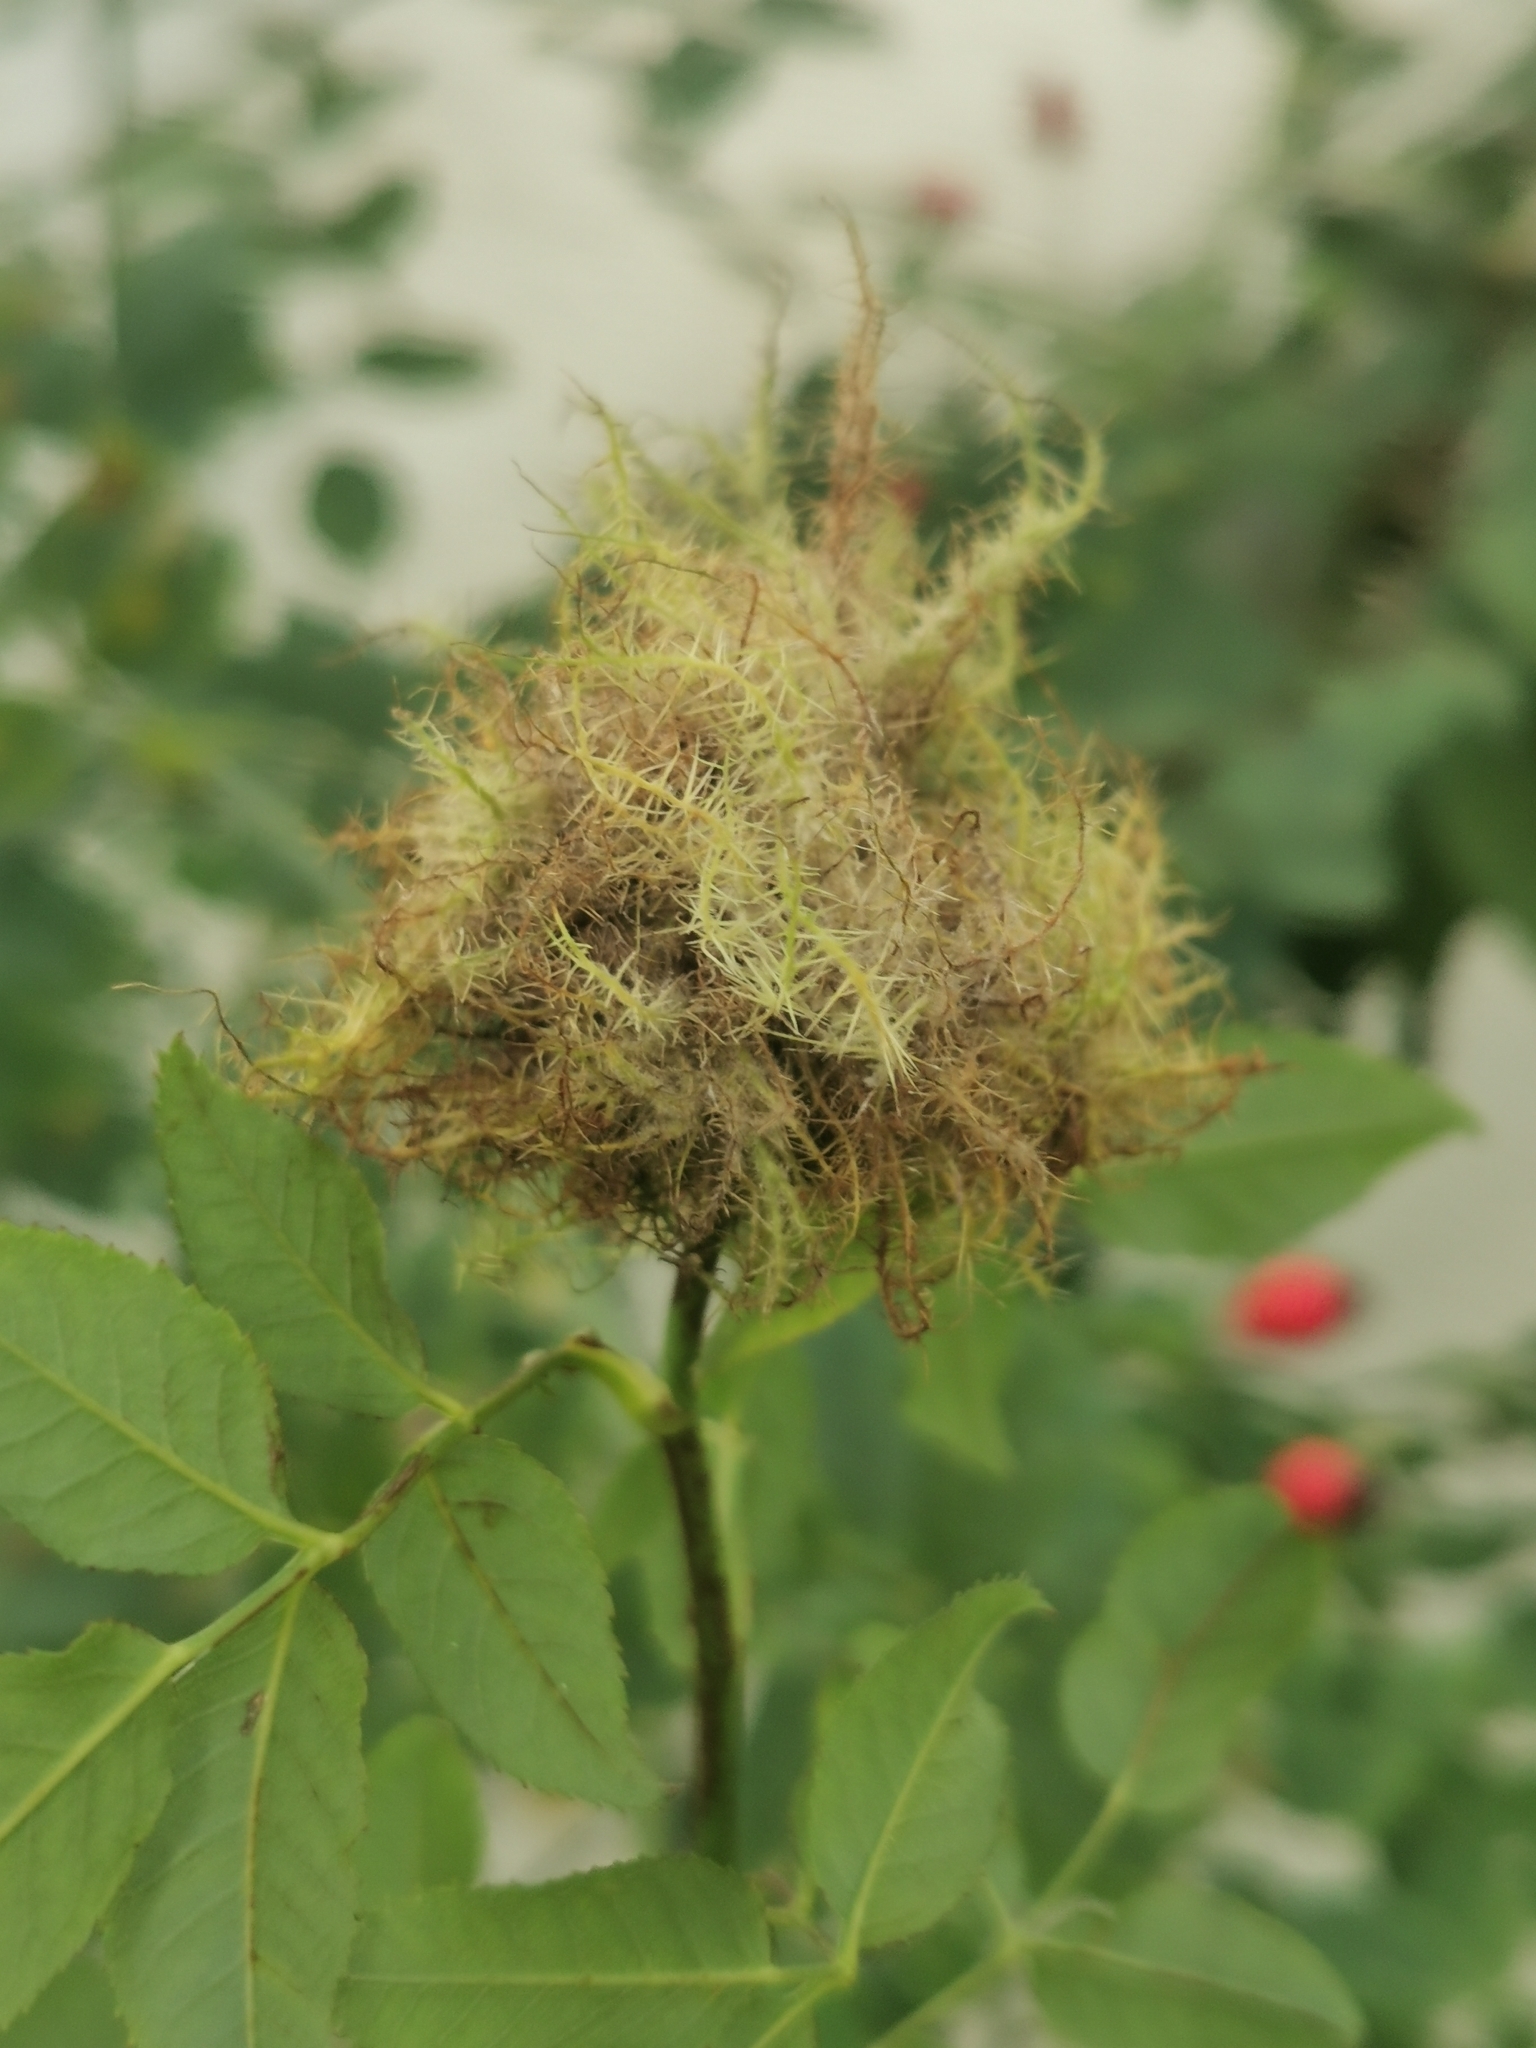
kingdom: Animalia
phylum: Arthropoda
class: Insecta
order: Hymenoptera
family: Cynipidae
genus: Diplolepis
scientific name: Diplolepis rosae
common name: Bedeguar gall
